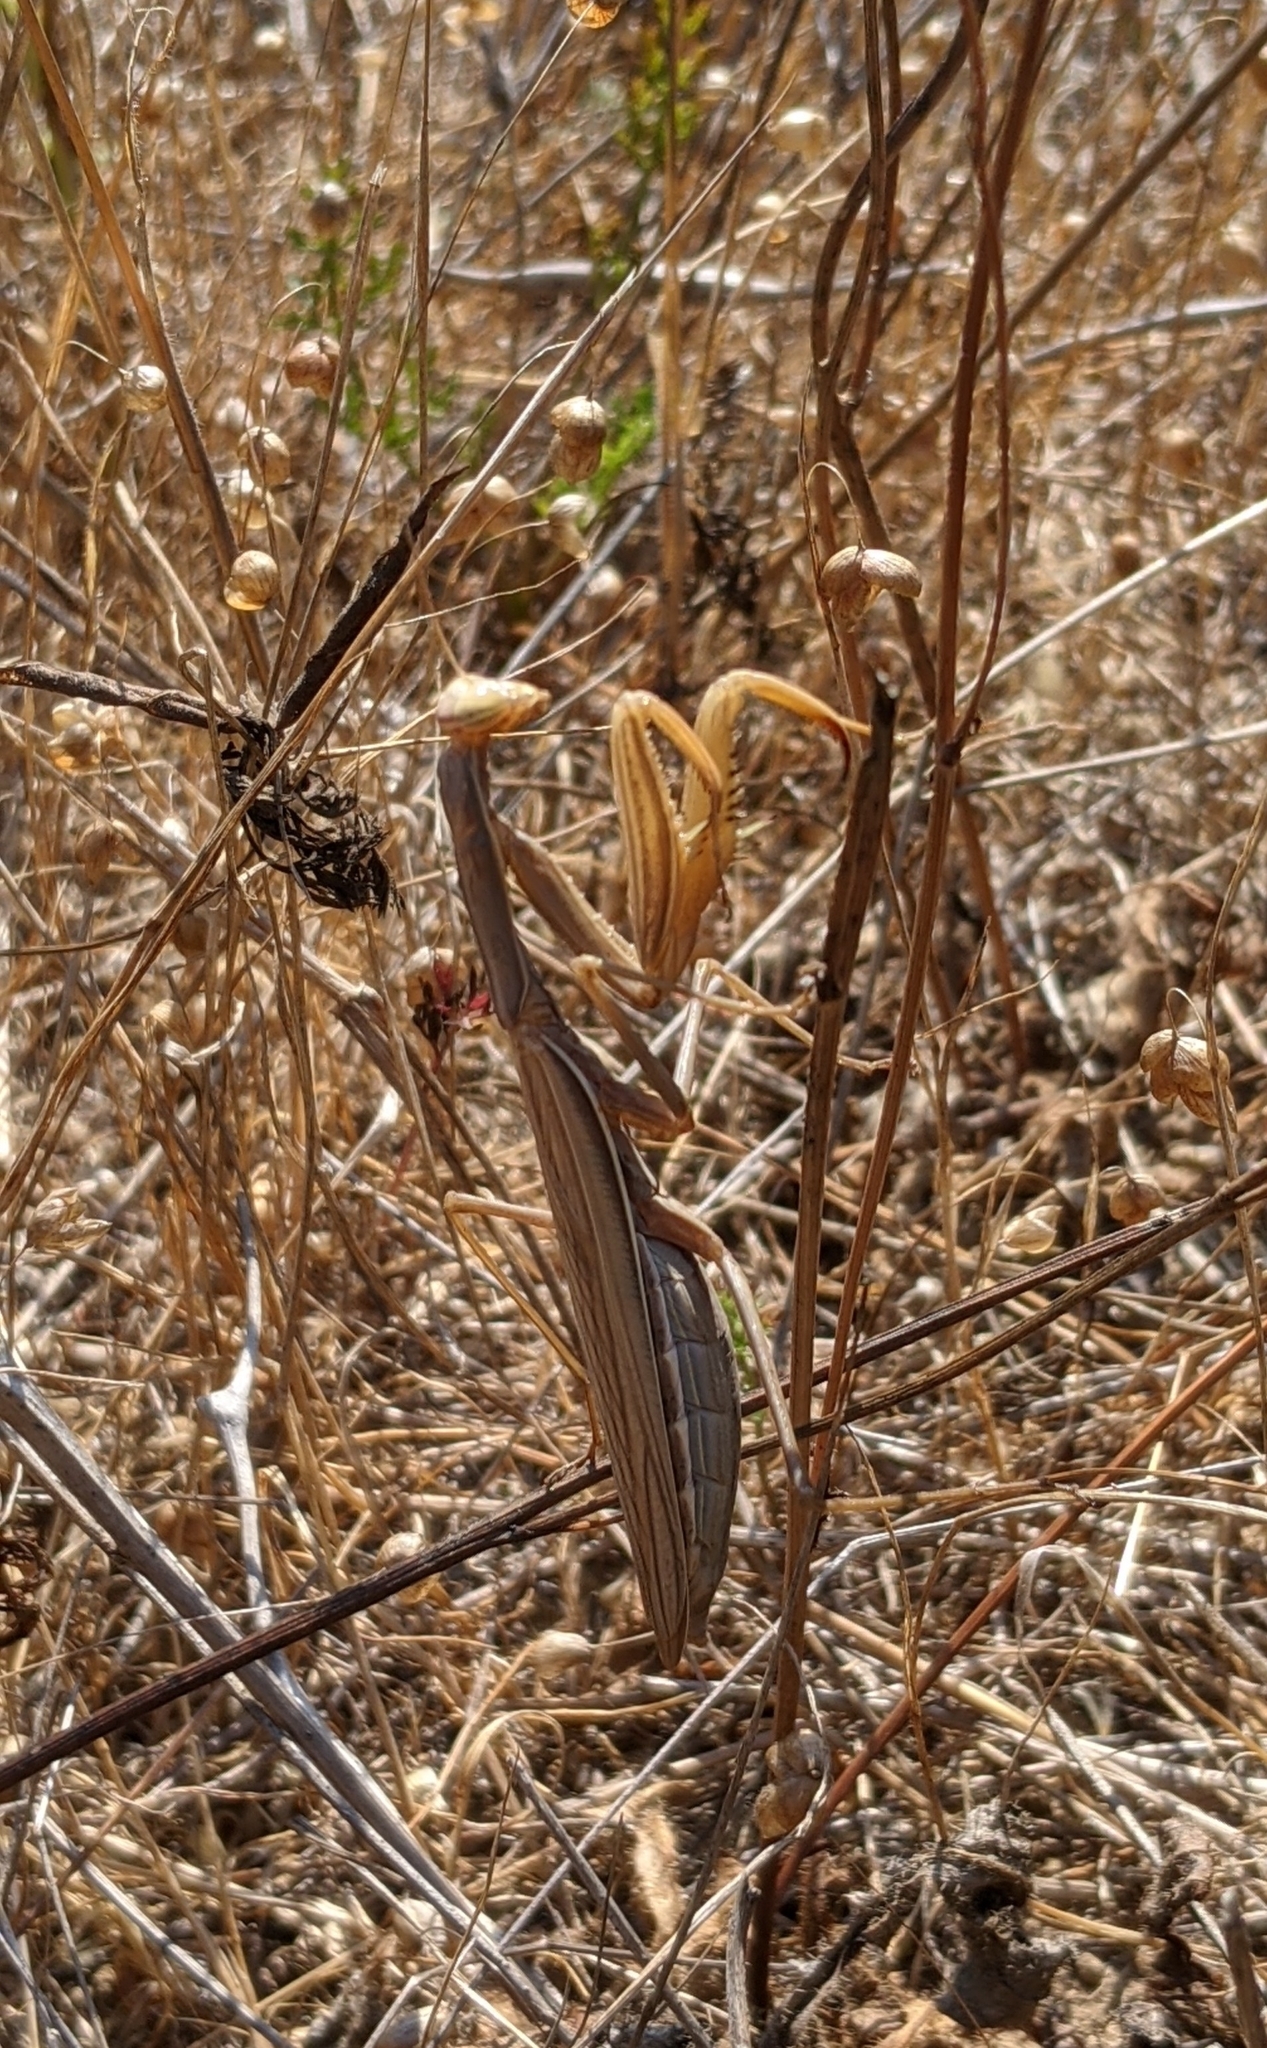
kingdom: Animalia
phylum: Arthropoda
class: Insecta
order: Mantodea
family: Mantidae
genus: Mantis
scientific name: Mantis religiosa
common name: Praying mantis
